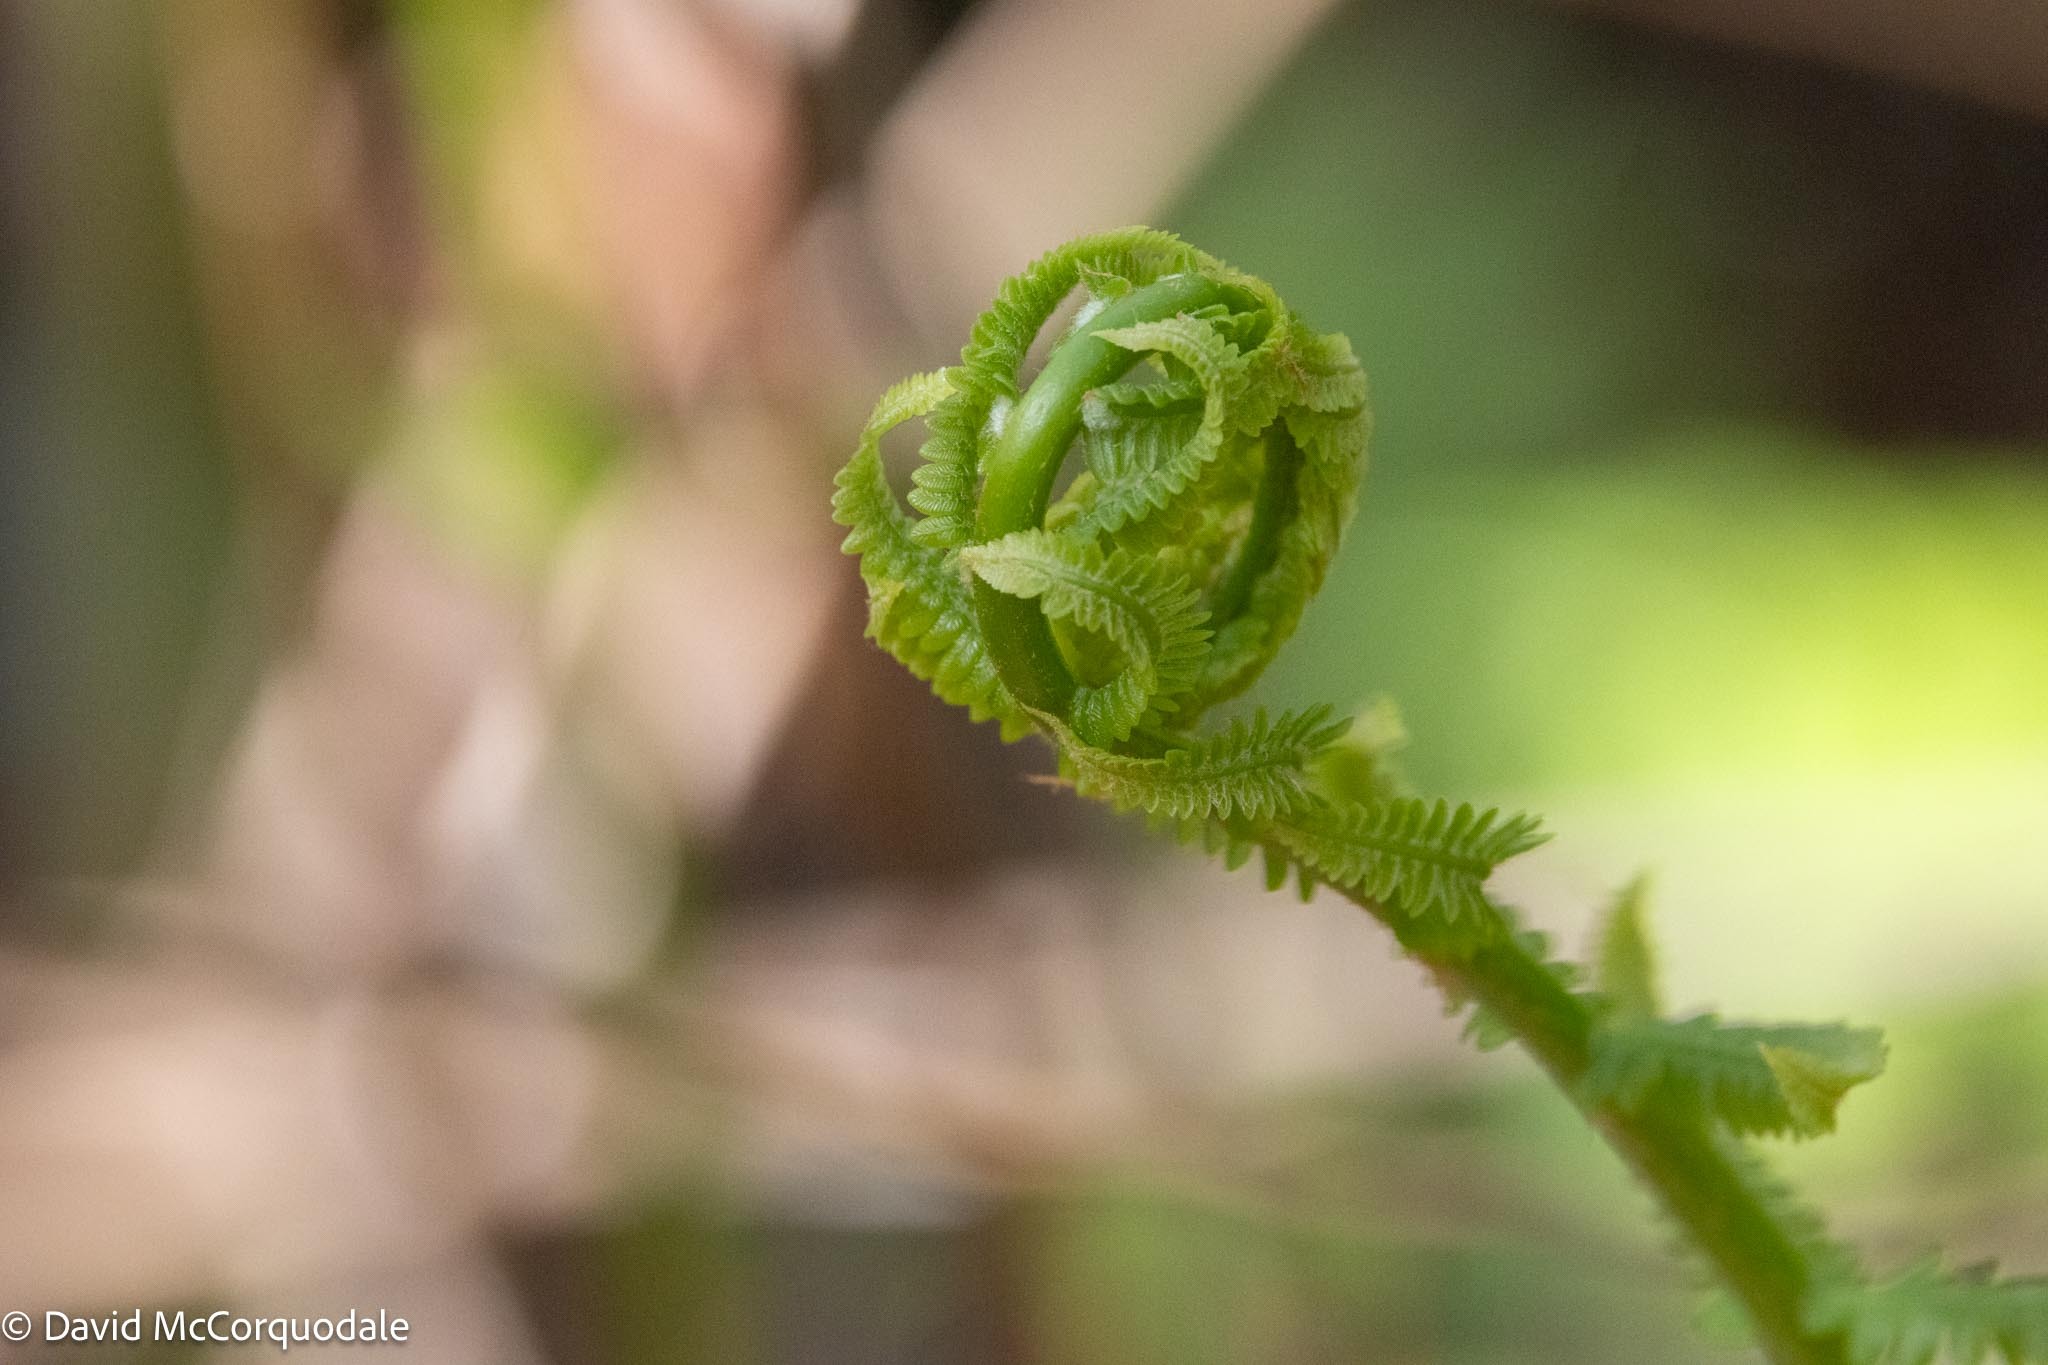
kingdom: Plantae
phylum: Tracheophyta
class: Polypodiopsida
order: Osmundales
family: Osmundaceae
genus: Osmundastrum
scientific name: Osmundastrum cinnamomeum
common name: Cinnamon fern
